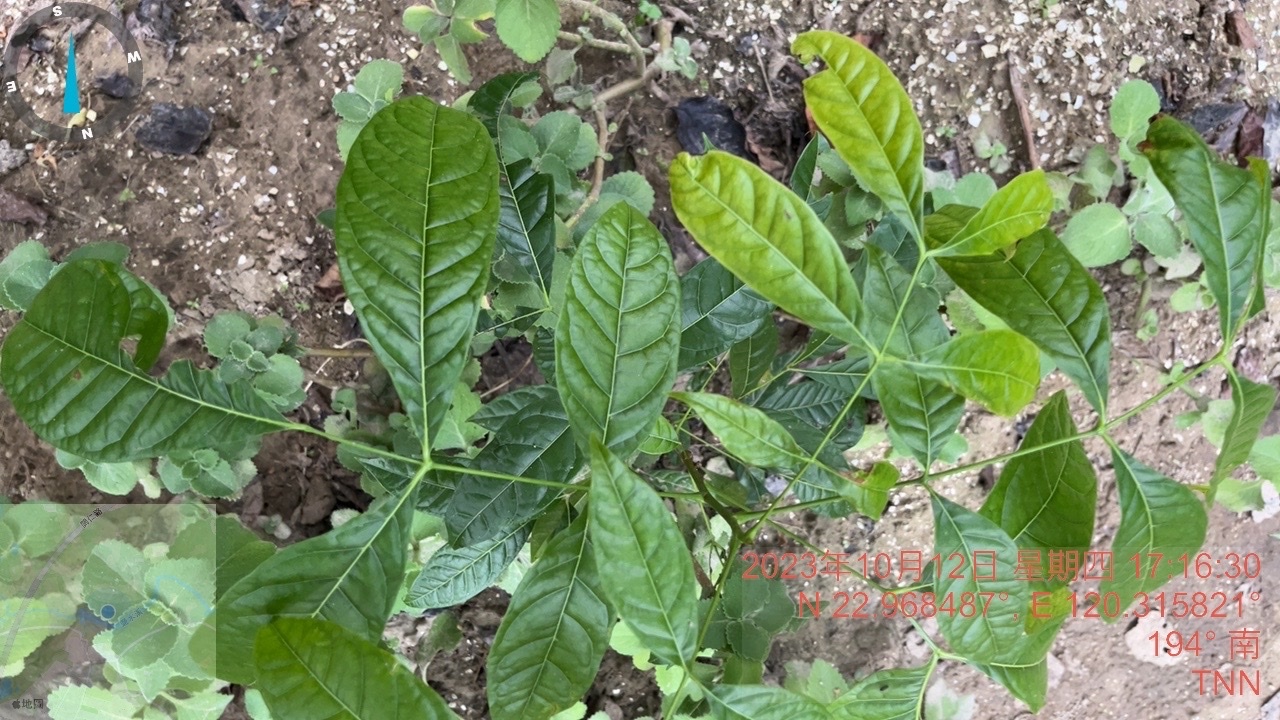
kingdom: Plantae
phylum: Tracheophyta
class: Magnoliopsida
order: Sapindales
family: Meliaceae
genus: Swietenia
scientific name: Swietenia macrophylla
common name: Honduras mahogany
